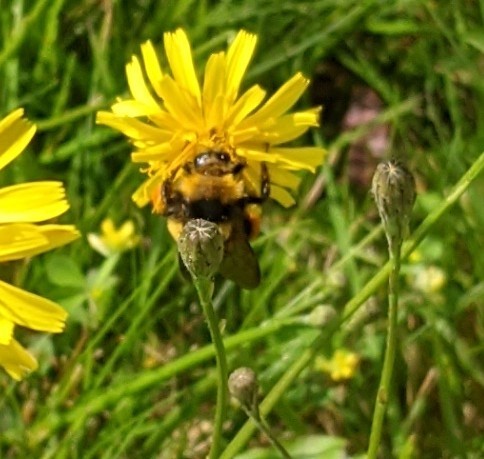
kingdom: Animalia
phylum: Arthropoda
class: Insecta
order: Hymenoptera
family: Apidae
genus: Bombus
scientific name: Bombus borealis
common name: Northern amber bumble bee
